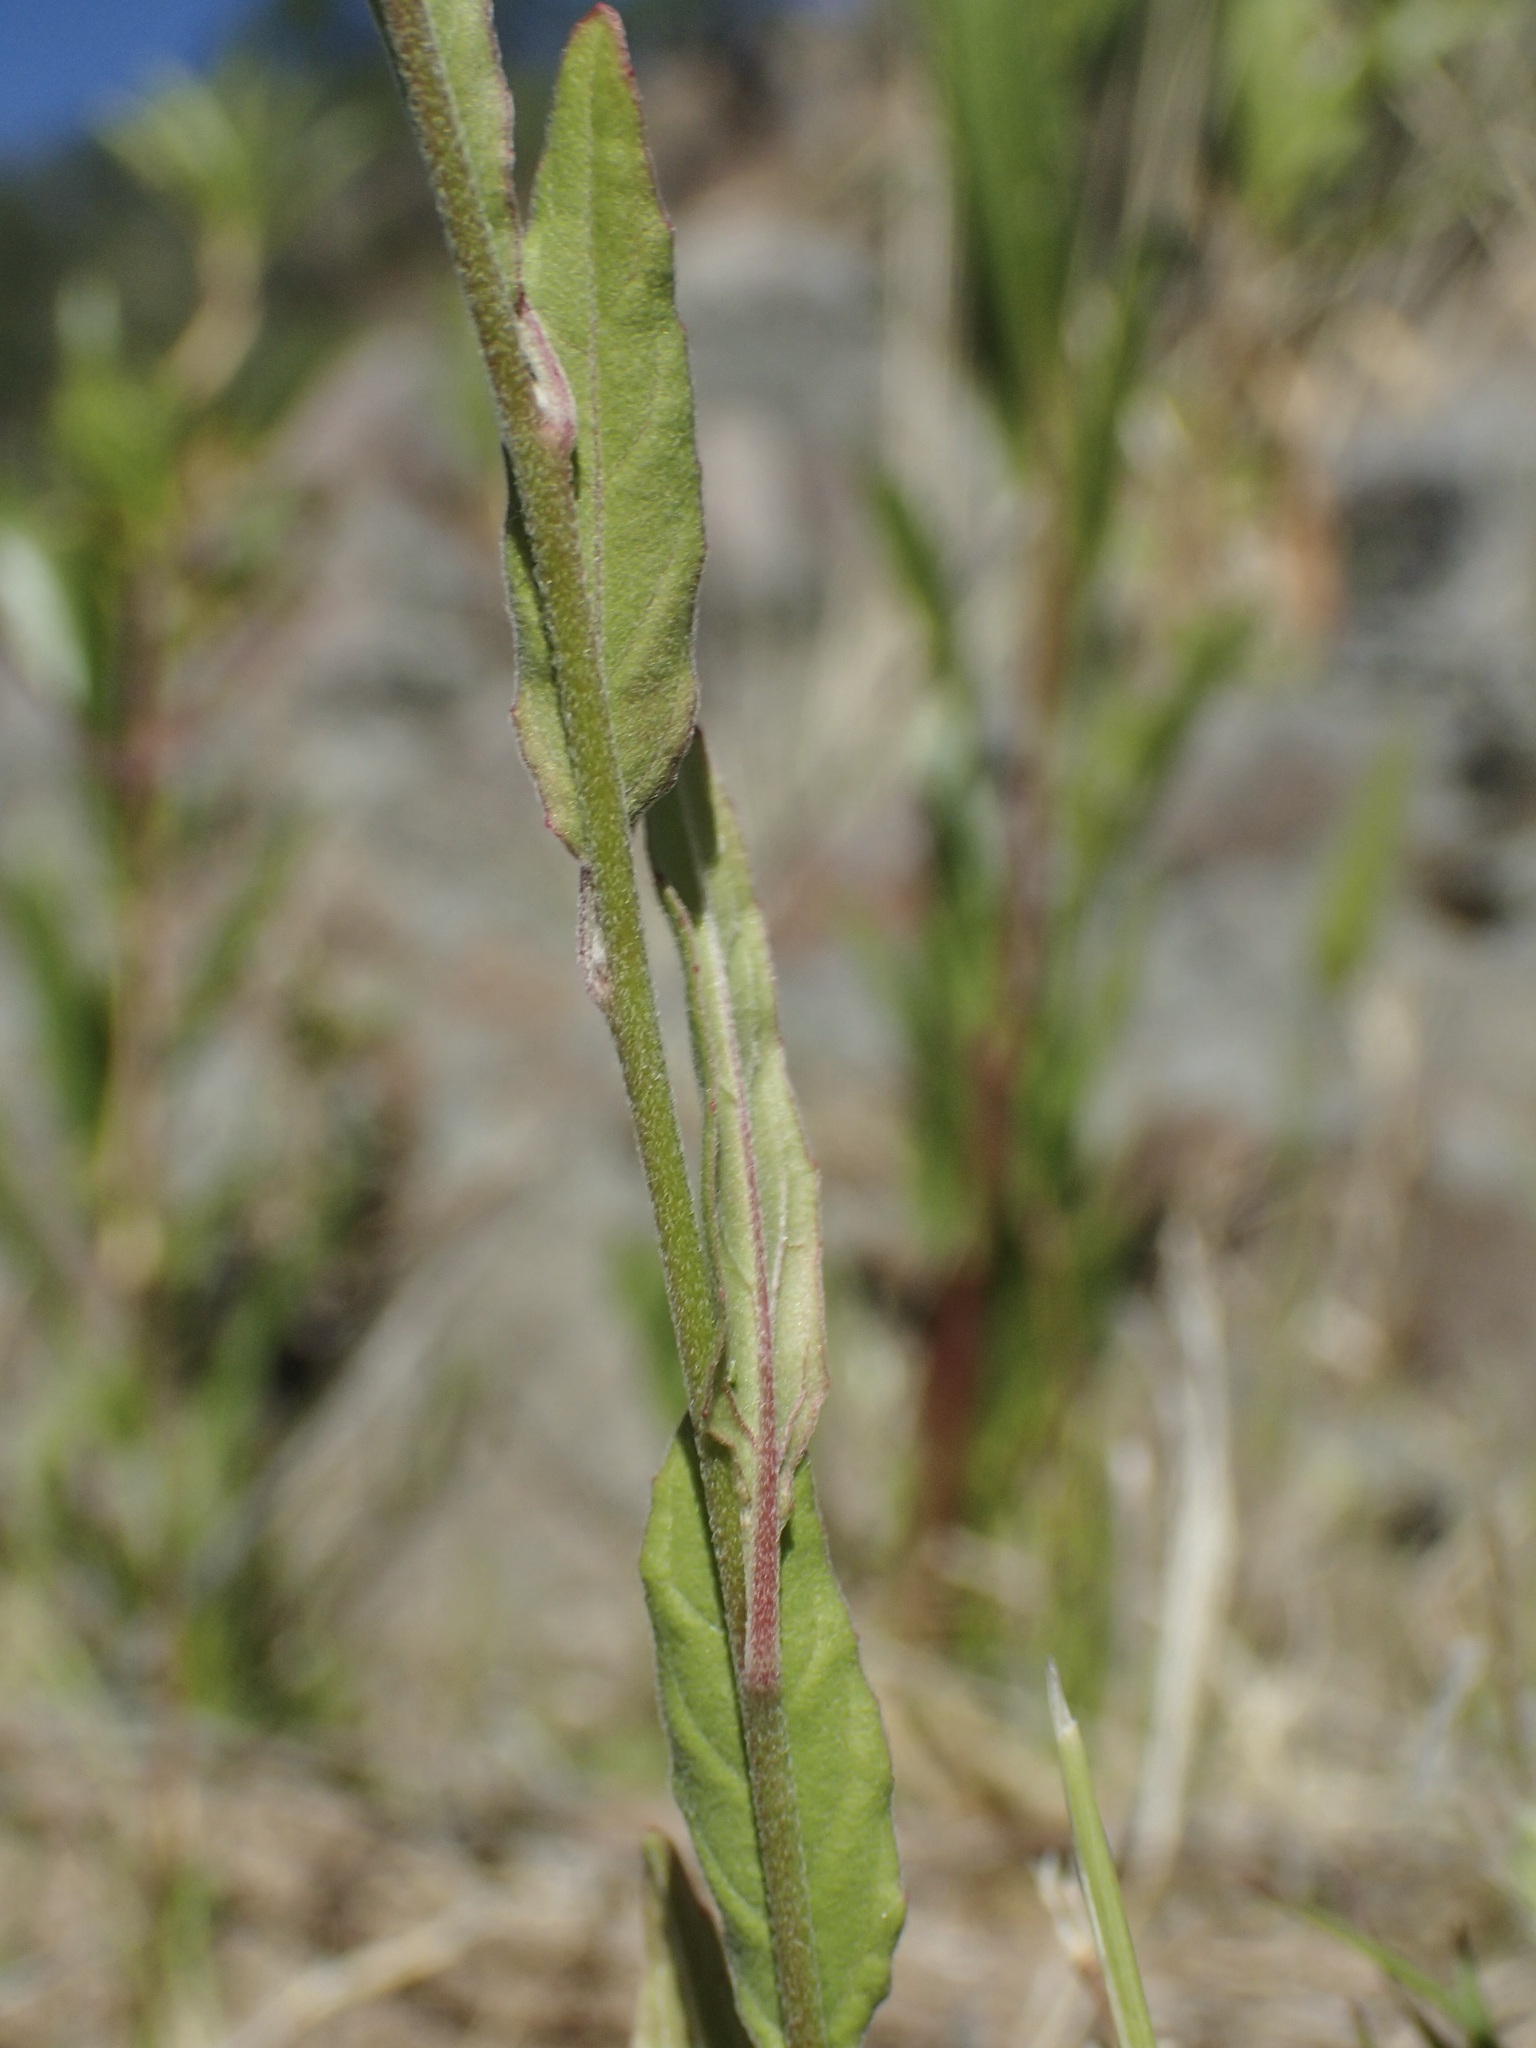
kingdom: Plantae
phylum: Tracheophyta
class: Magnoliopsida
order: Myrtales
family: Onagraceae
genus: Oenothera
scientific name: Oenothera platanorum
